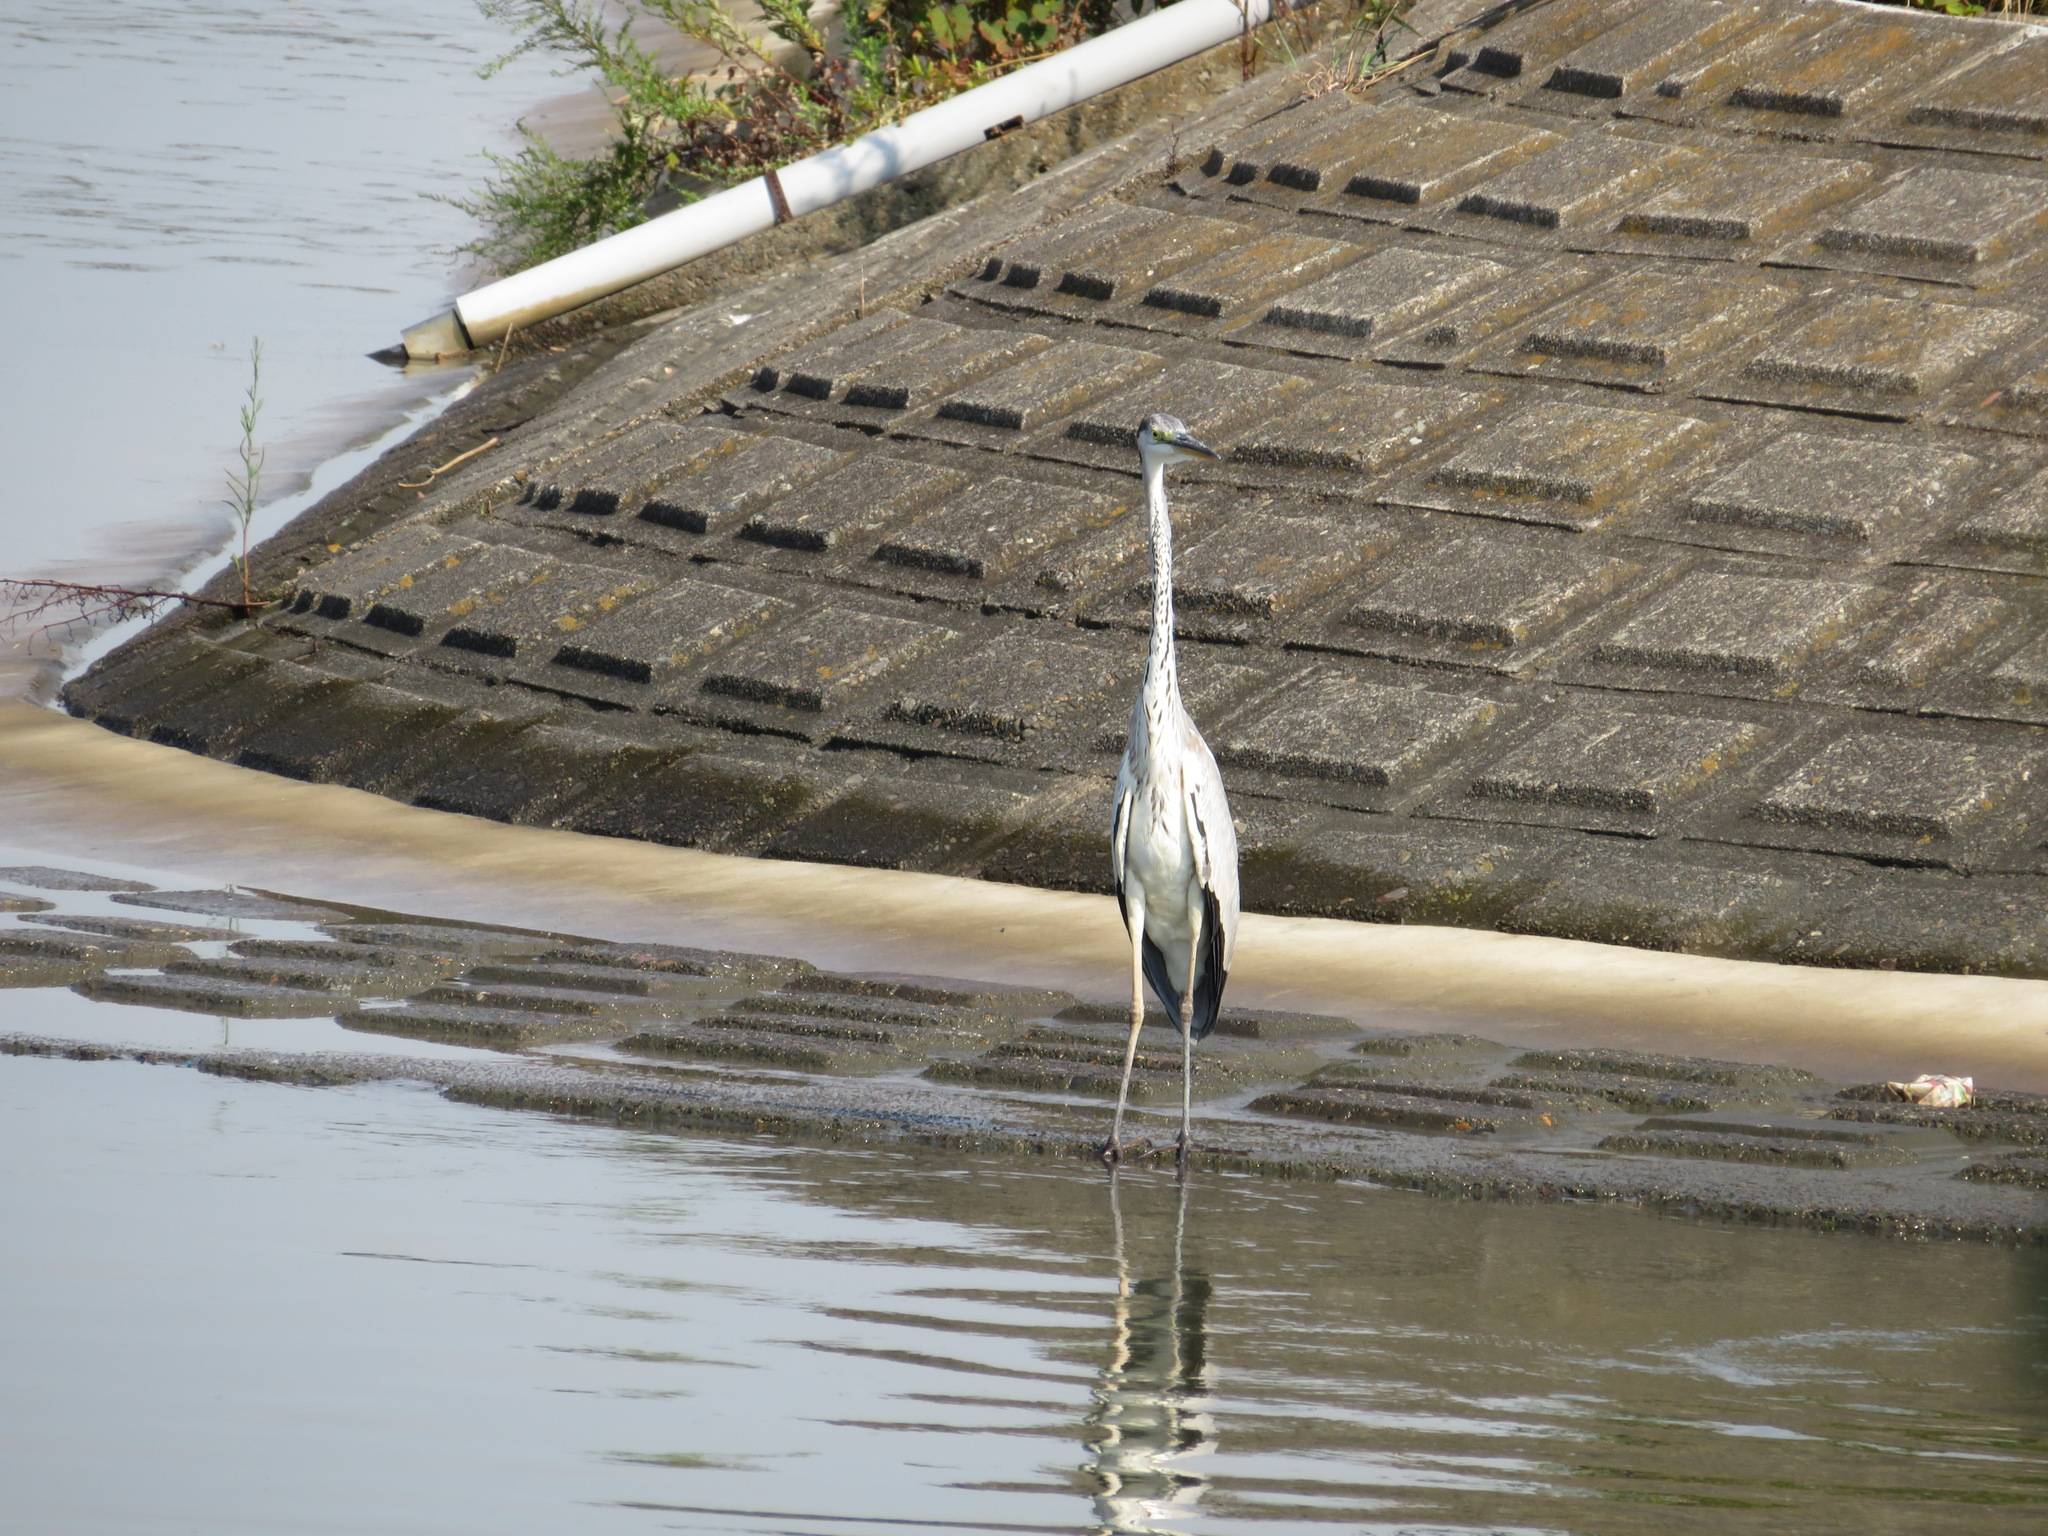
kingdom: Animalia
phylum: Chordata
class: Aves
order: Pelecaniformes
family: Ardeidae
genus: Ardea
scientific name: Ardea cinerea
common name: Grey heron
